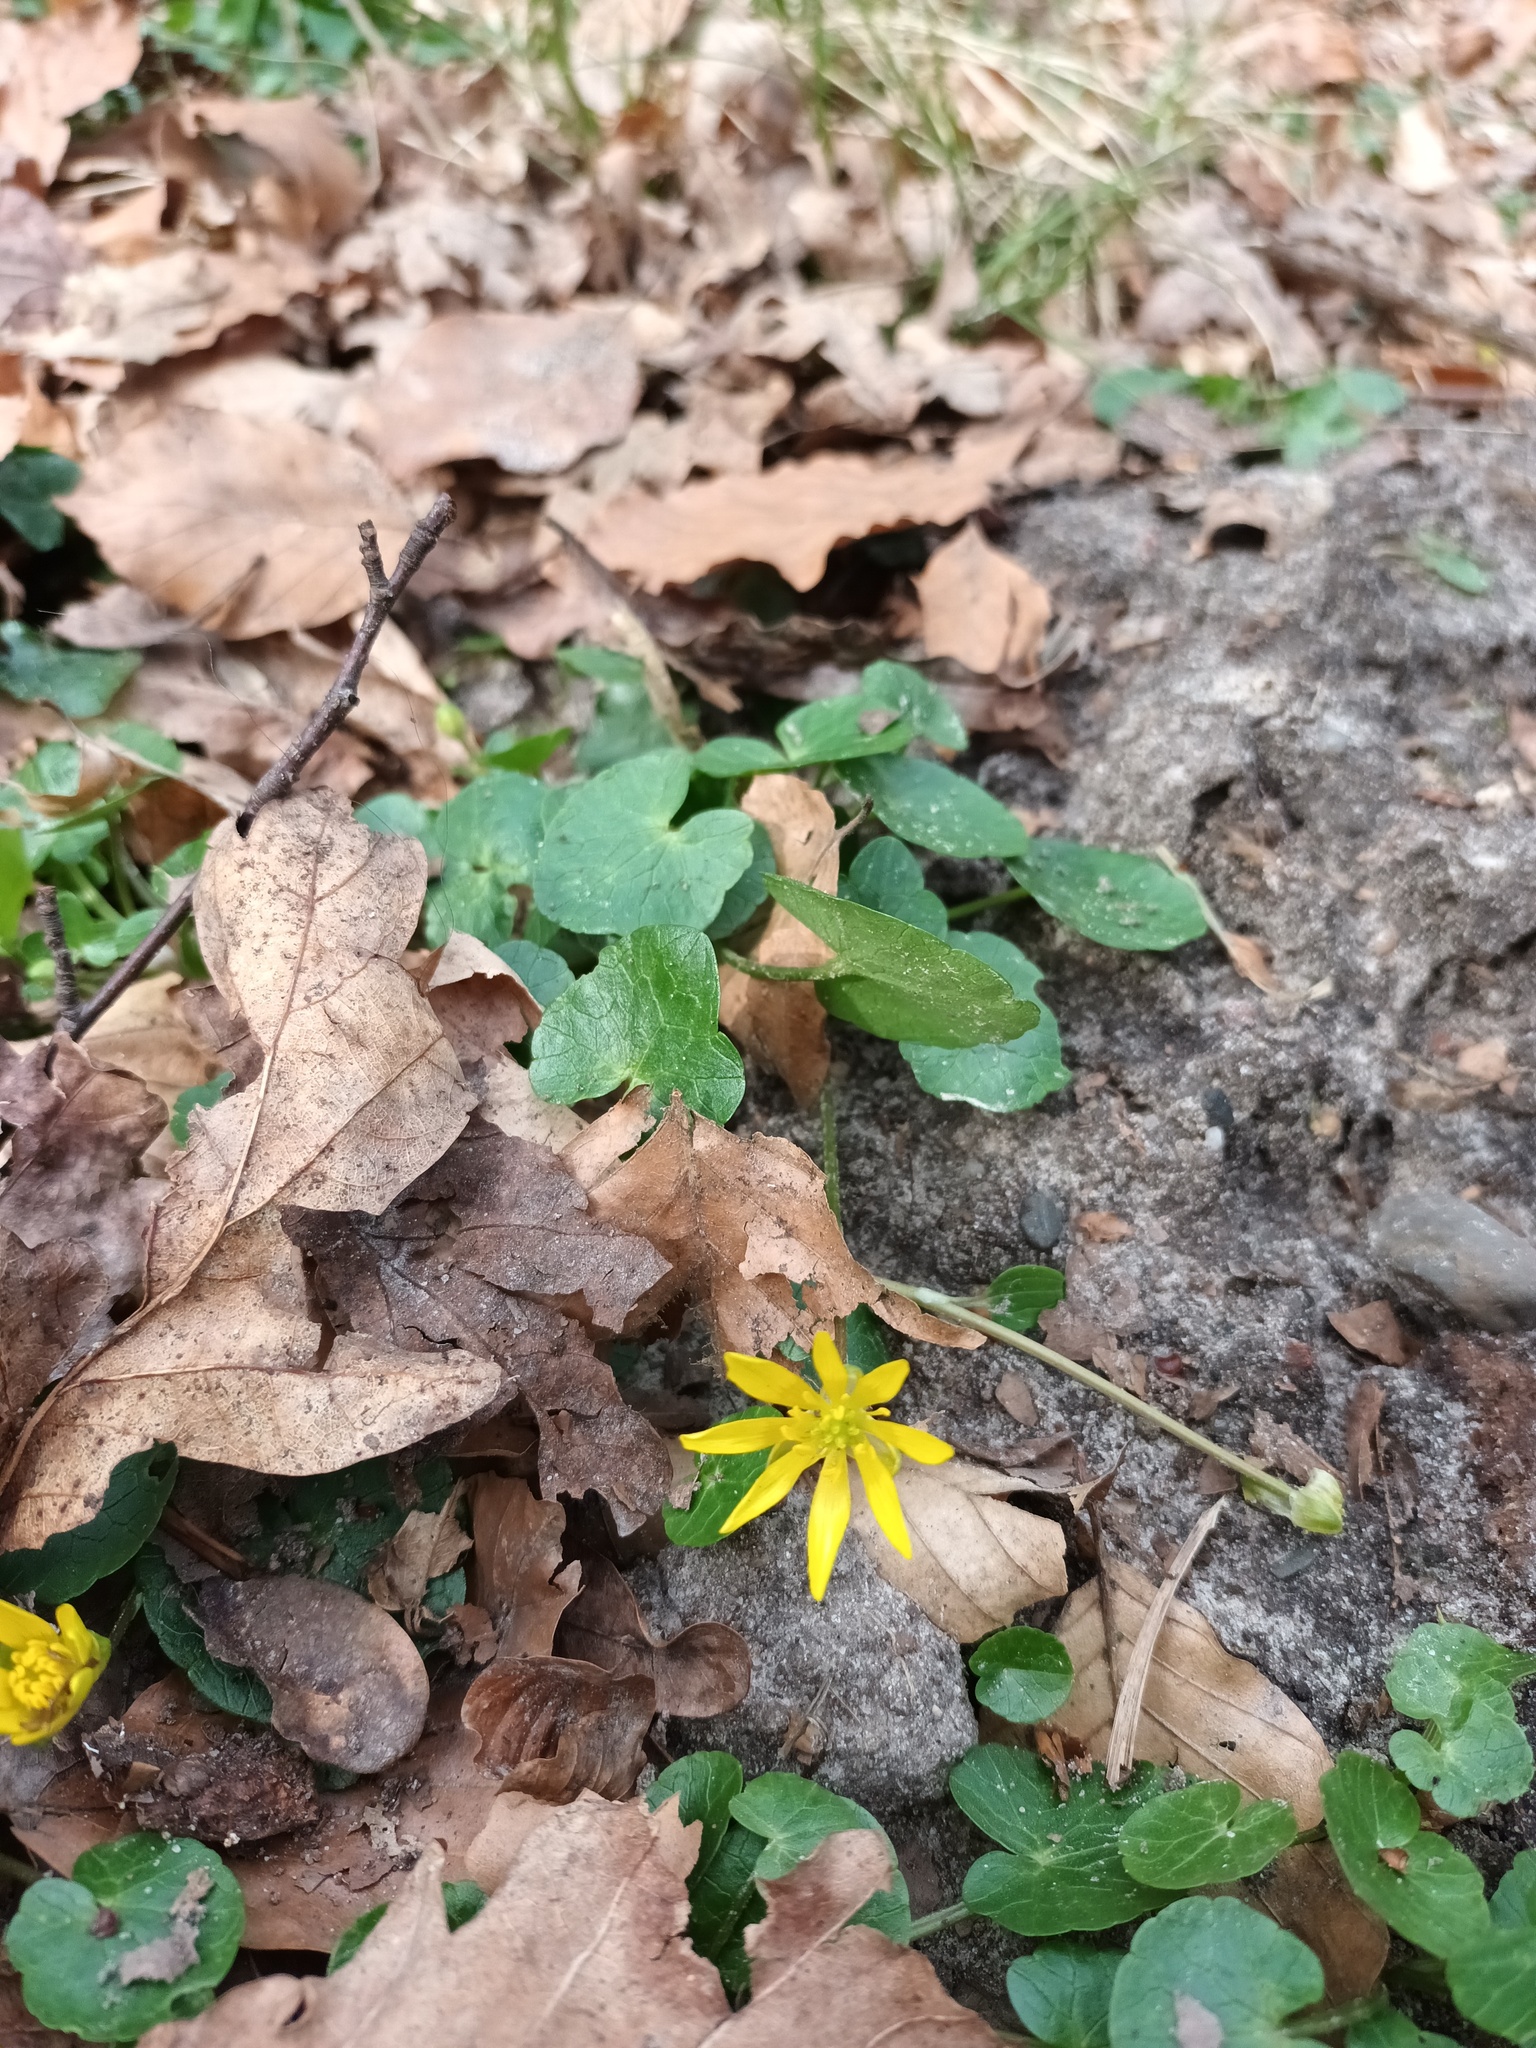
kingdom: Plantae
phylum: Tracheophyta
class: Magnoliopsida
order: Ranunculales
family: Ranunculaceae
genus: Ficaria
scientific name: Ficaria verna
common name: Lesser celandine
